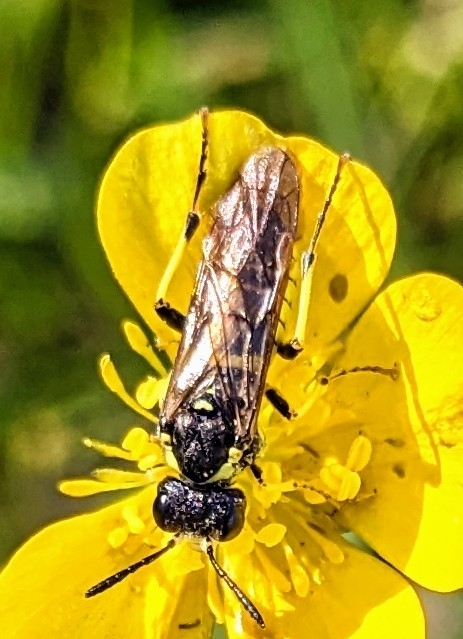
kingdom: Animalia
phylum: Arthropoda
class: Insecta
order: Hymenoptera
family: Tenthredinidae
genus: Tenthredo
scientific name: Tenthredo notha
